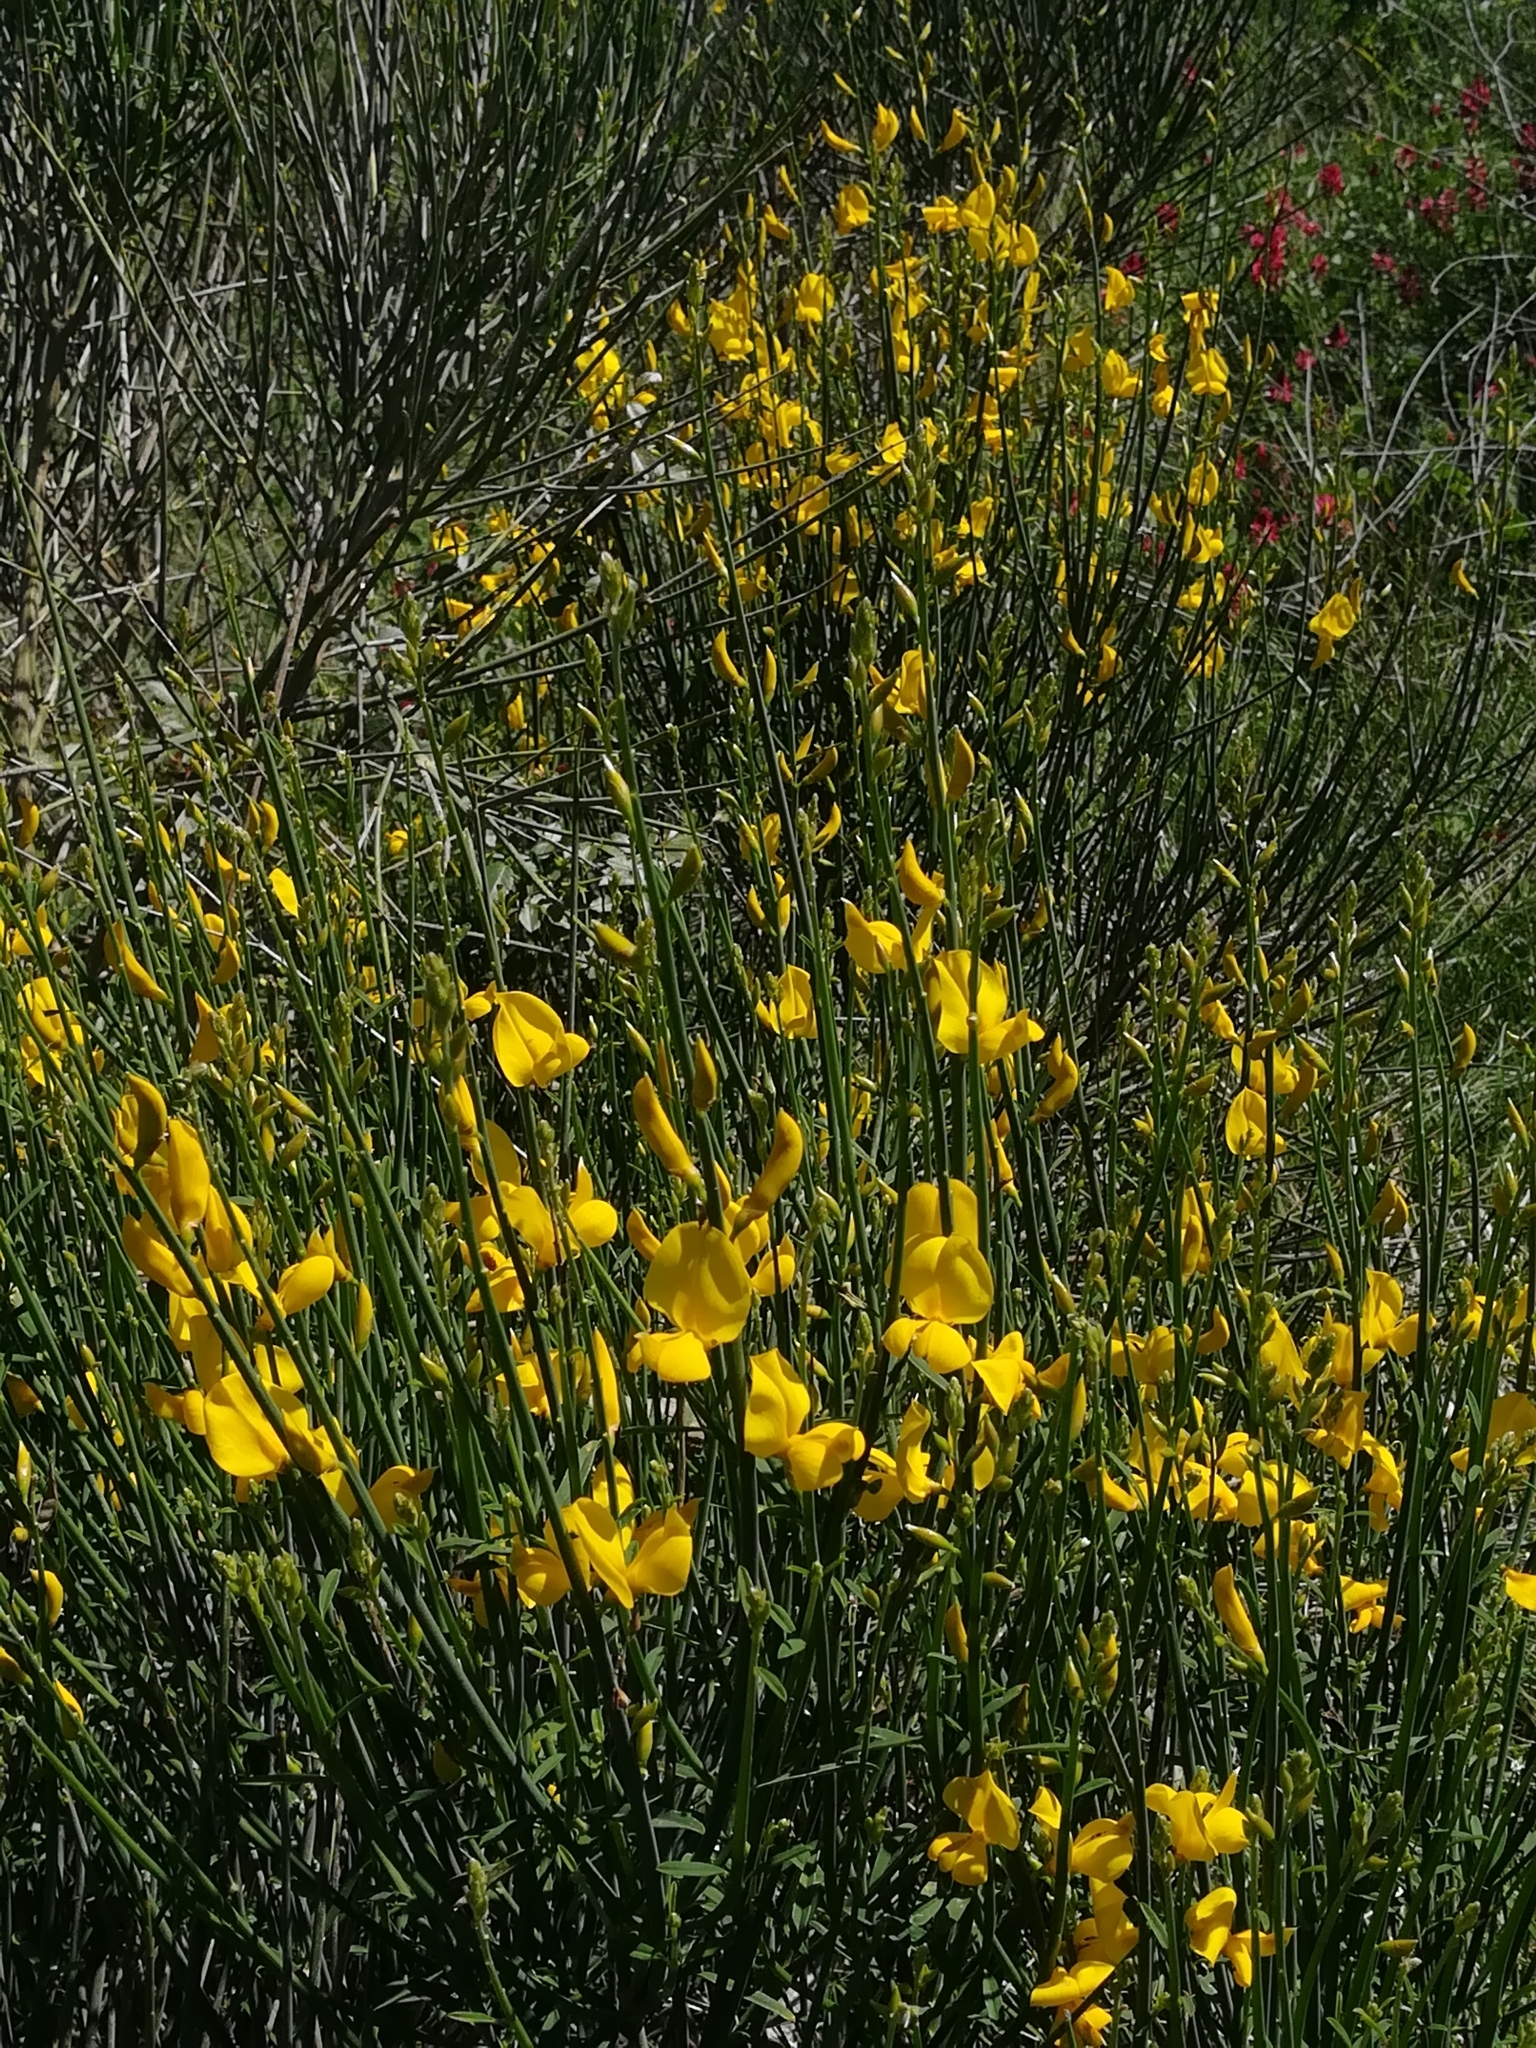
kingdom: Plantae
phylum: Tracheophyta
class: Magnoliopsida
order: Fabales
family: Fabaceae
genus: Spartium
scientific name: Spartium junceum
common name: Spanish broom
